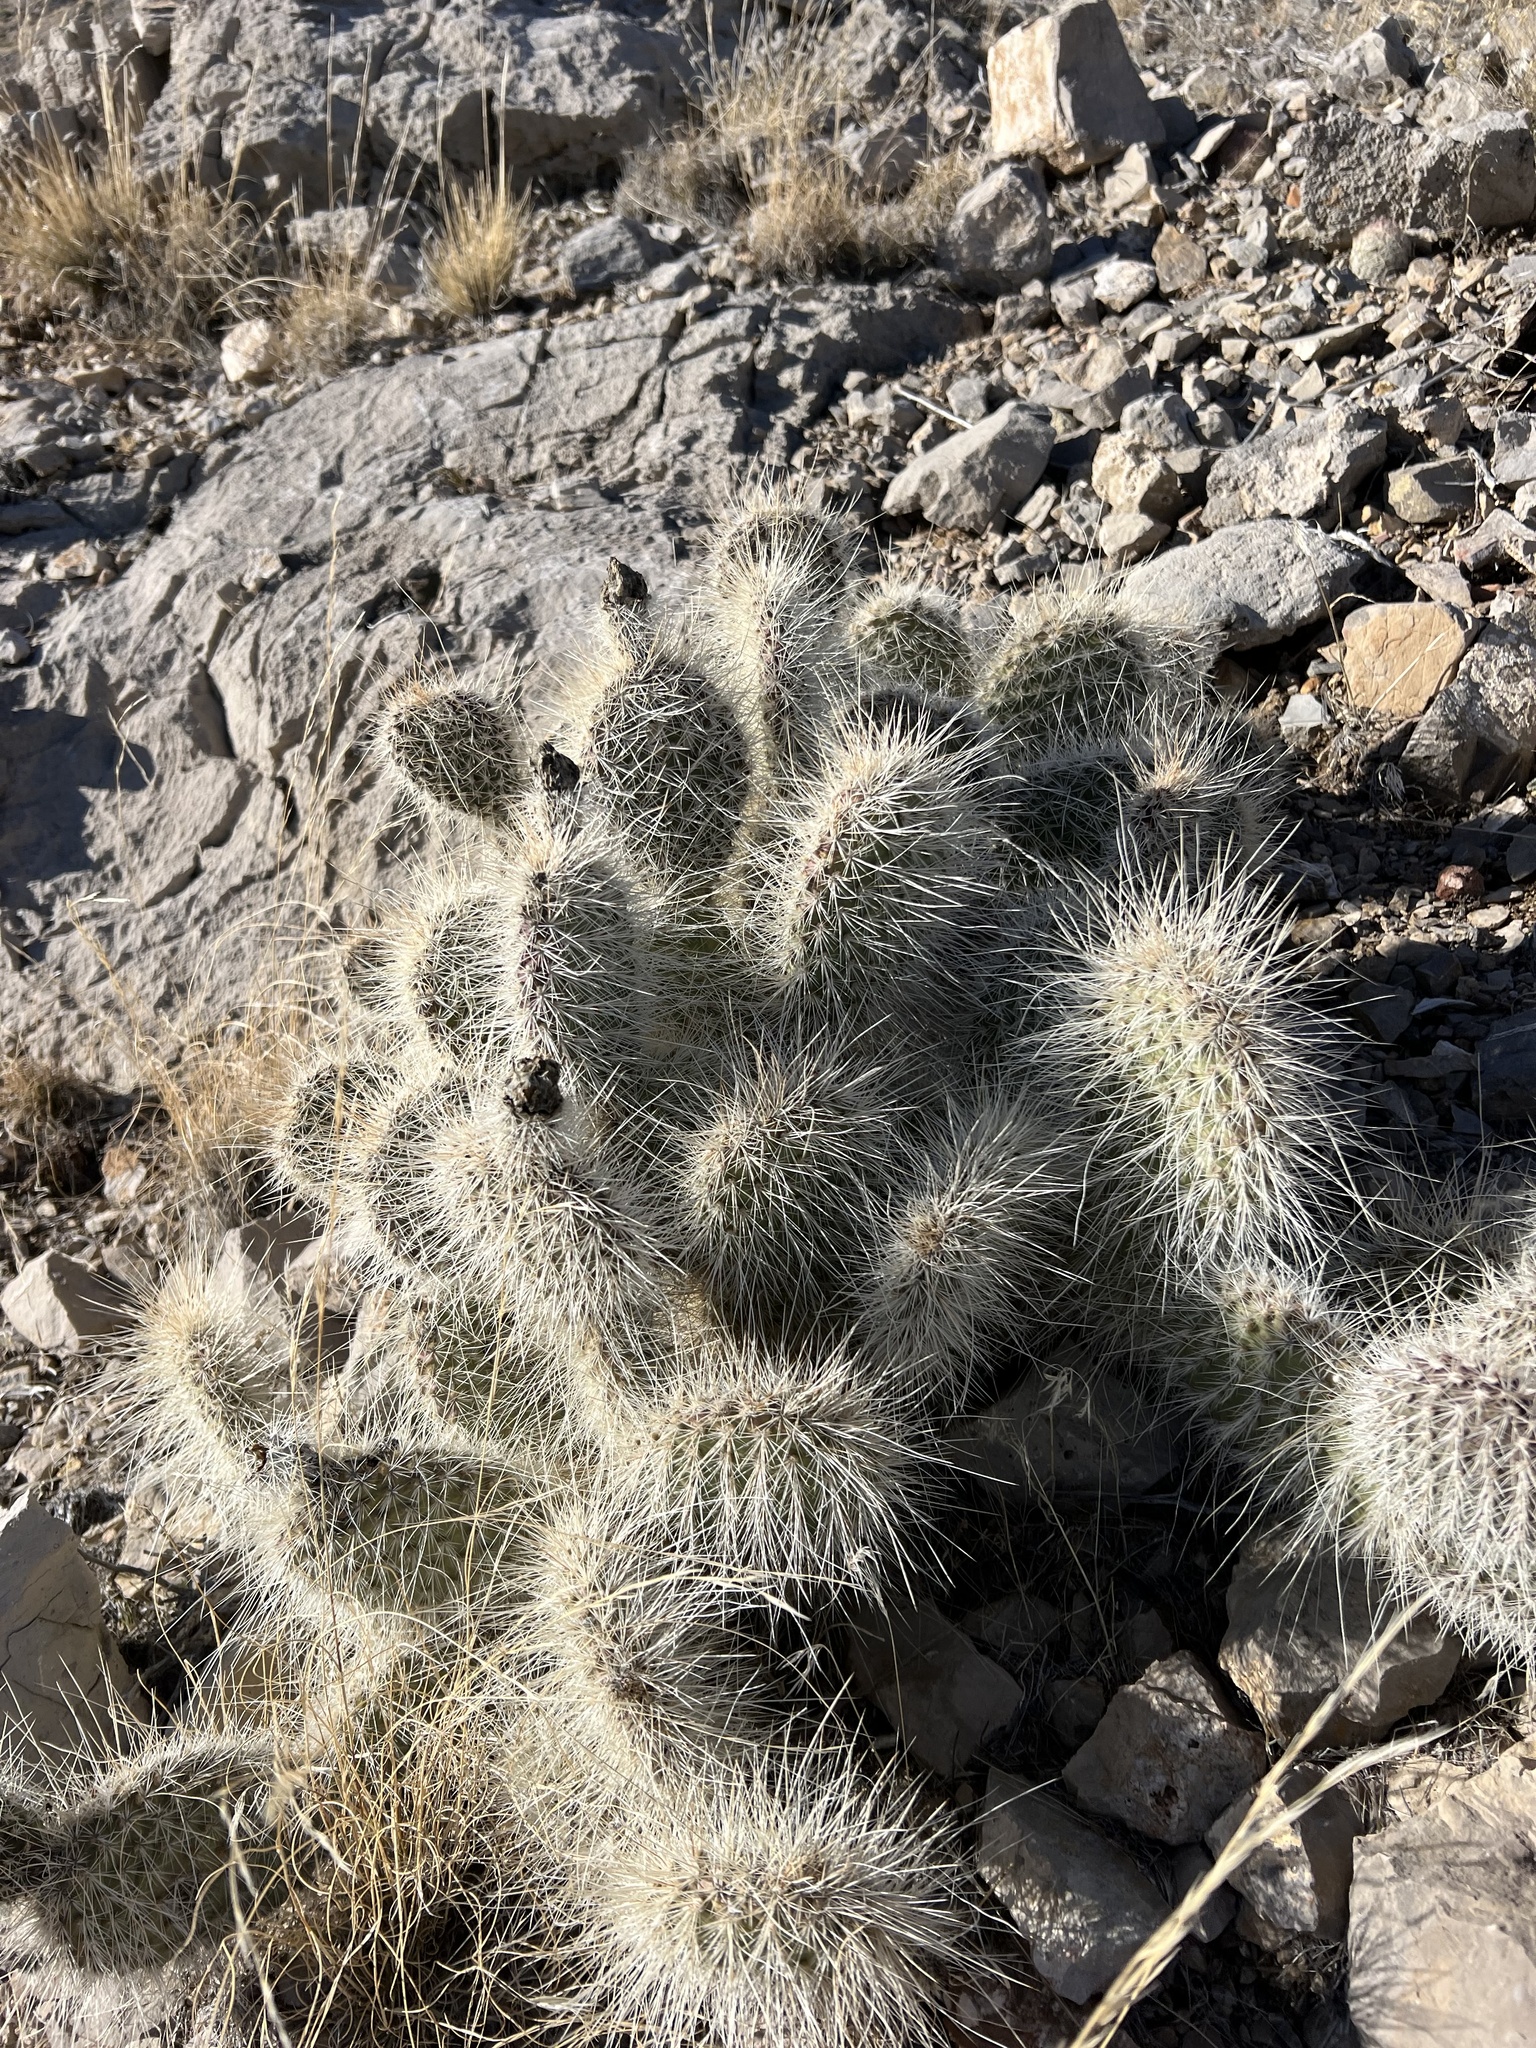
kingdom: Plantae
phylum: Tracheophyta
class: Magnoliopsida
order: Caryophyllales
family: Cactaceae
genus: Opuntia
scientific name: Opuntia polyacantha
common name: Plains prickly-pear
